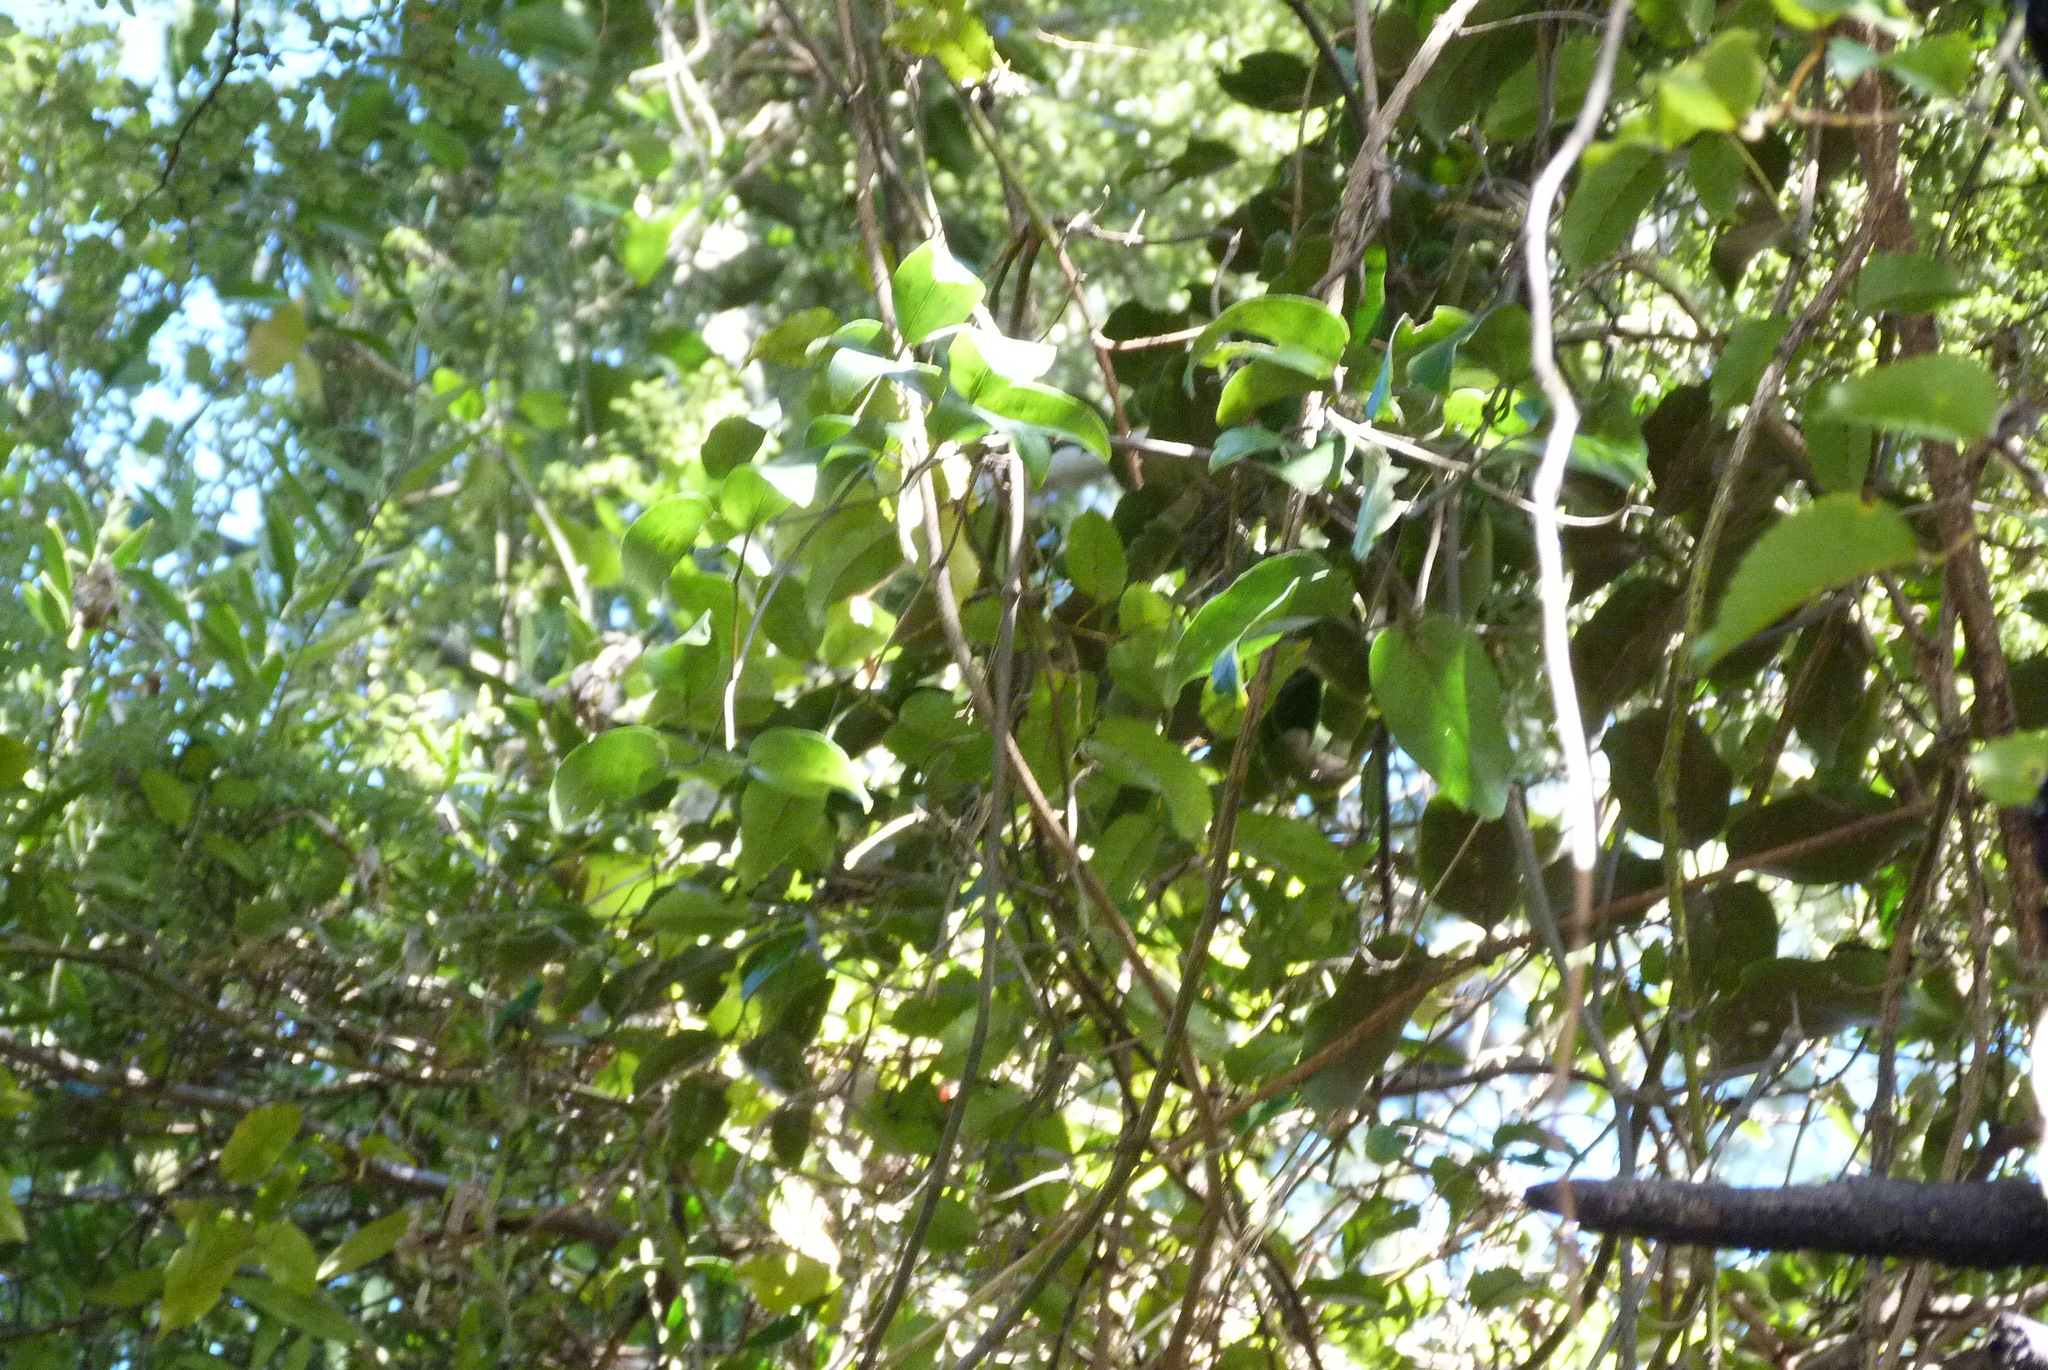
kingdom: Plantae
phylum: Tracheophyta
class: Magnoliopsida
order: Ranunculales
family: Ranunculaceae
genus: Clematis
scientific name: Clematis paniculata
